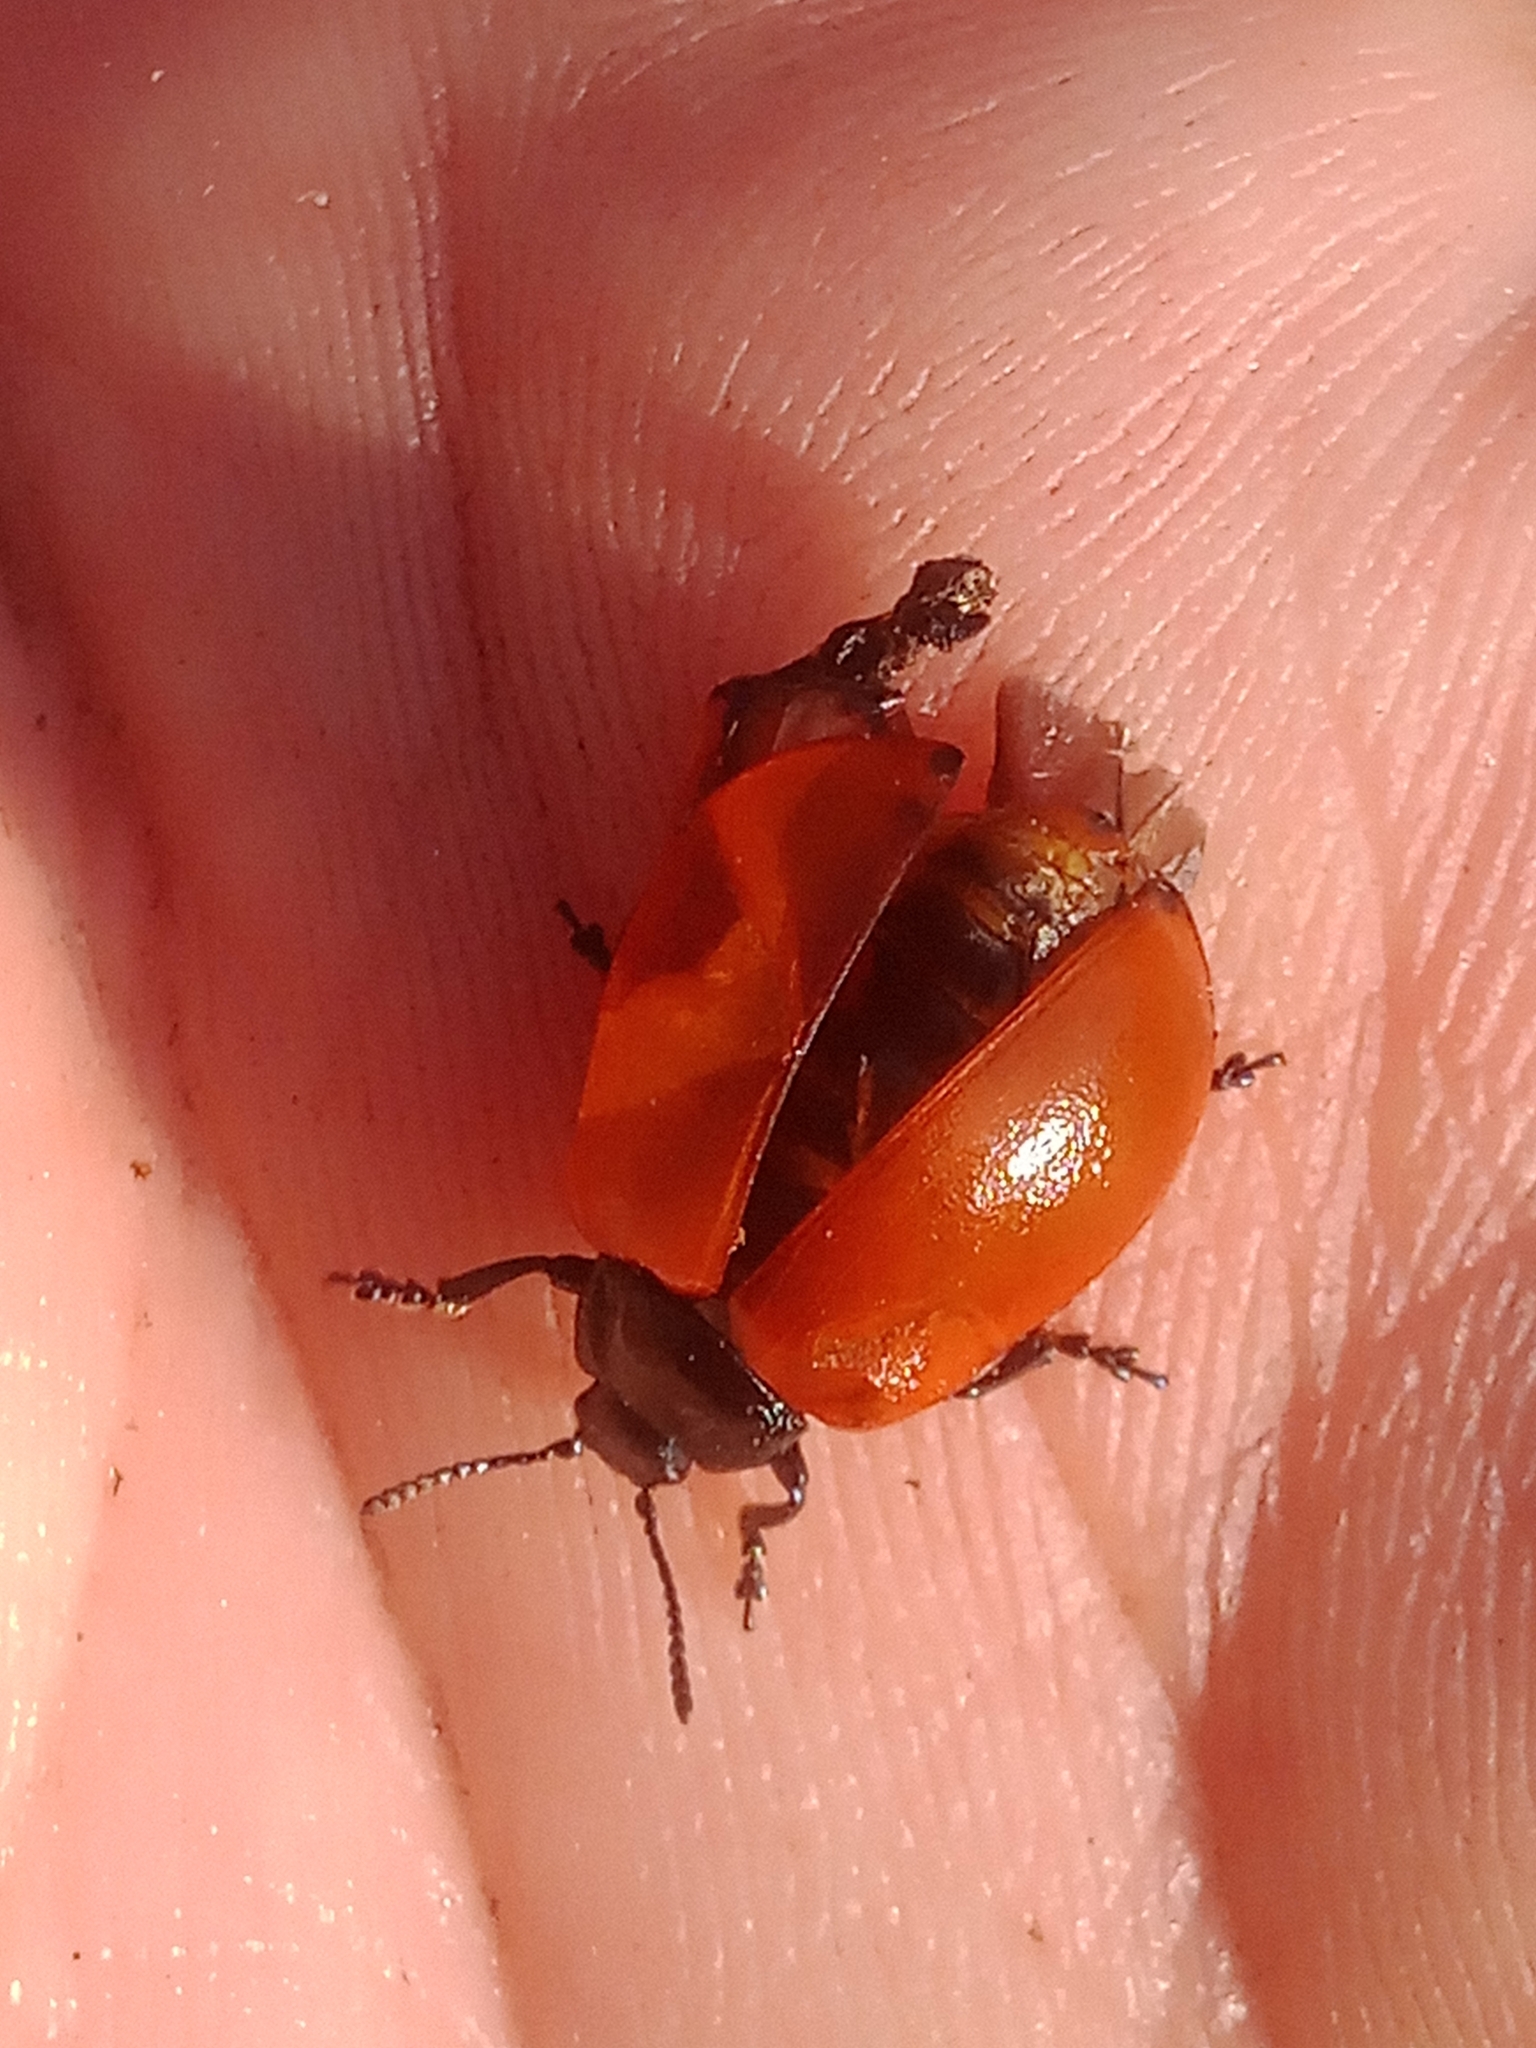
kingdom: Animalia
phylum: Arthropoda
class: Insecta
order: Coleoptera
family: Chrysomelidae
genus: Chrysomela
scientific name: Chrysomela populi
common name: Red poplar leaf beetle
